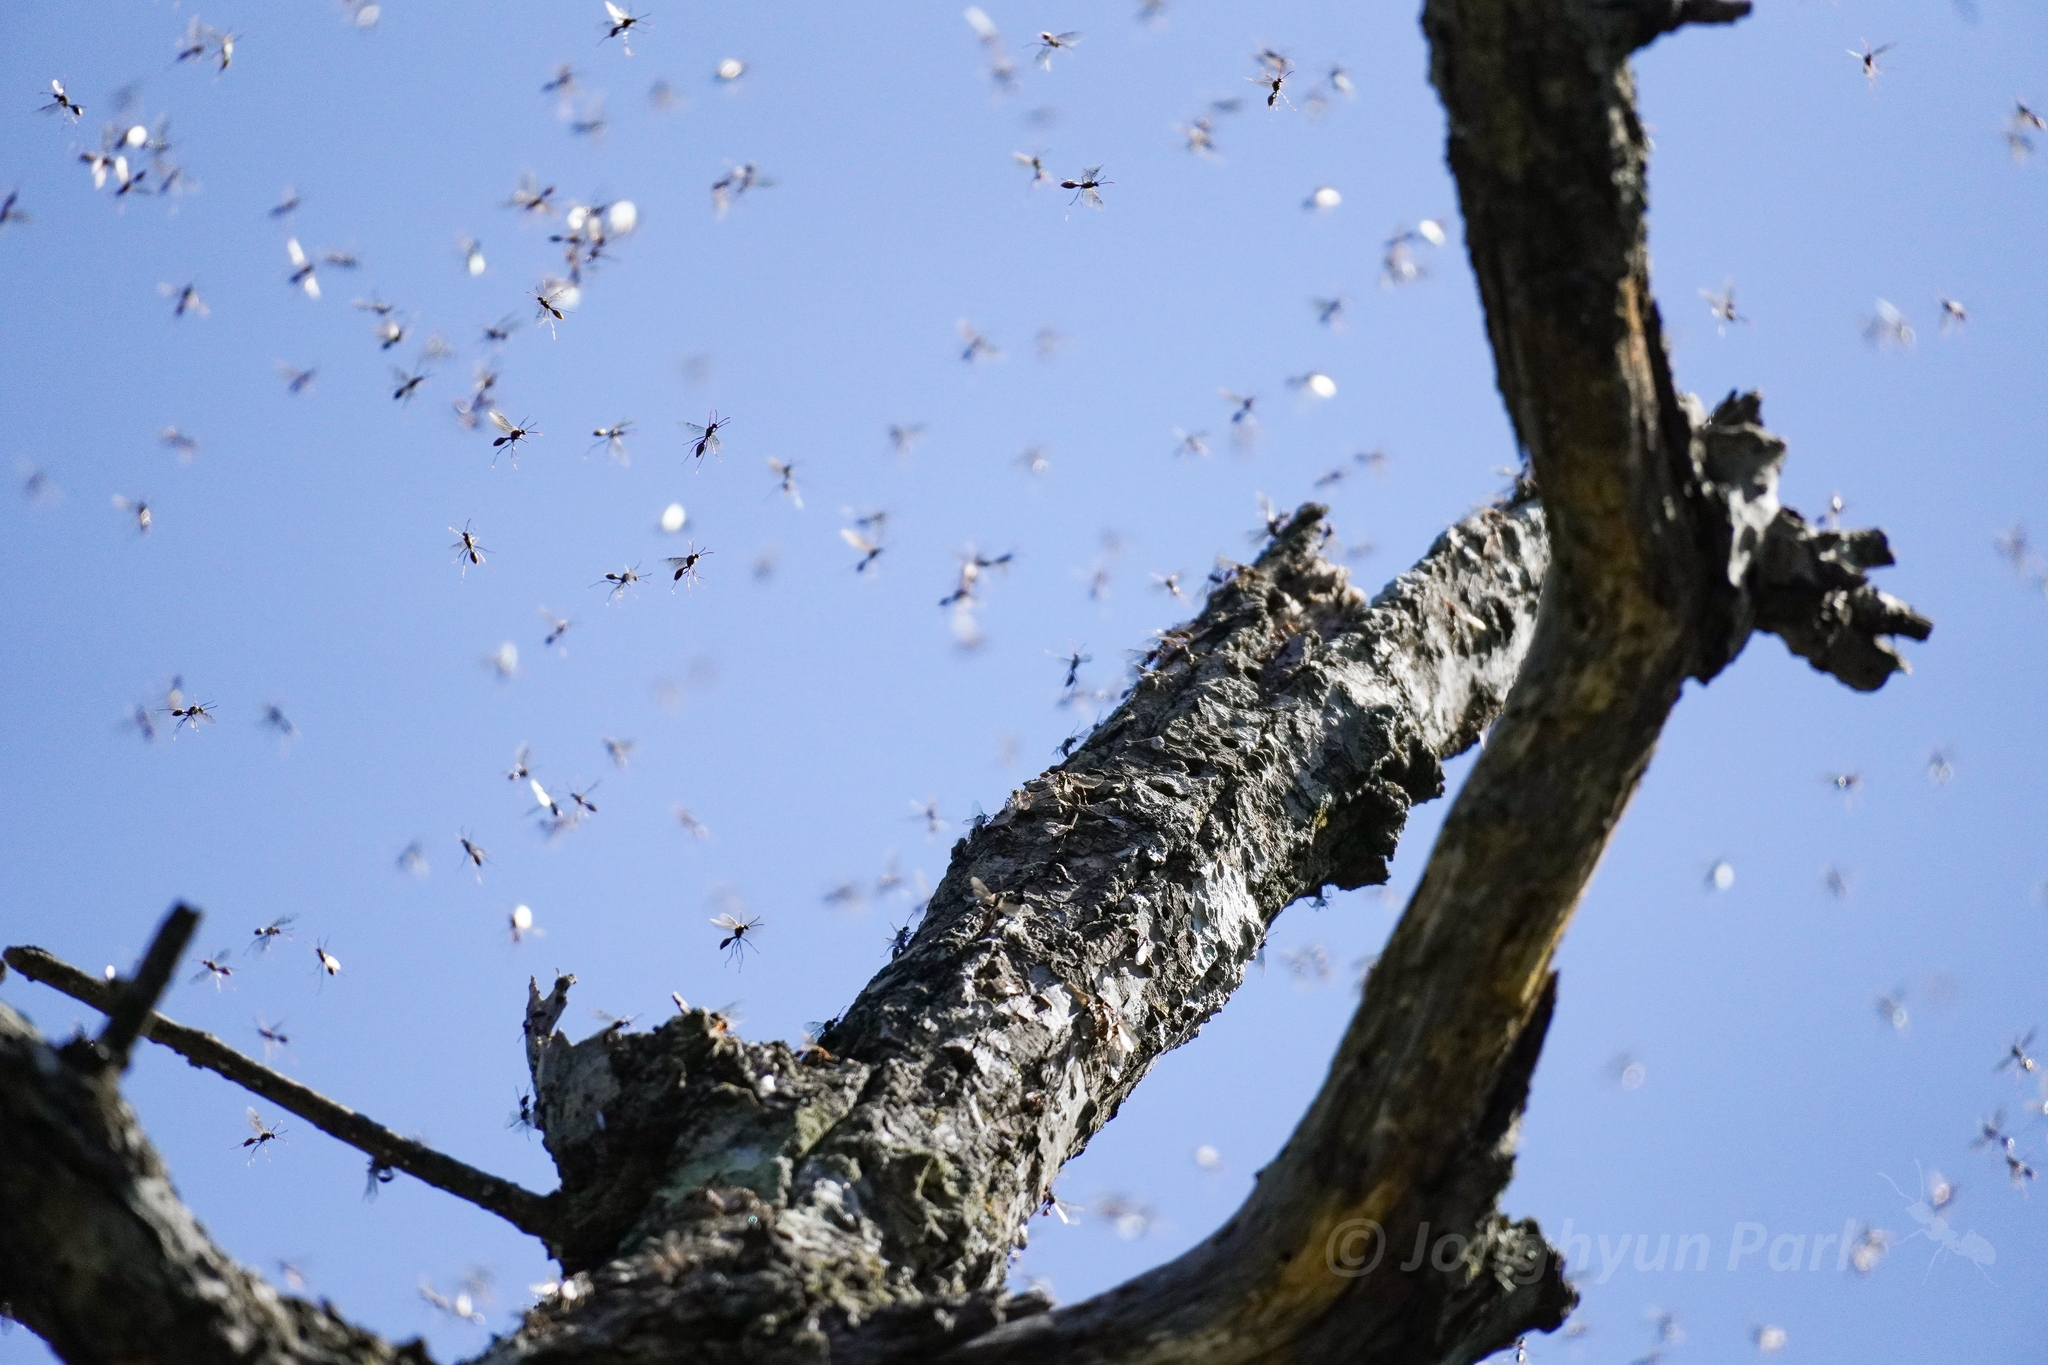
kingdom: Animalia
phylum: Arthropoda
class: Insecta
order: Hymenoptera
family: Formicidae
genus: Myrmica
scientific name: Myrmica luteola
